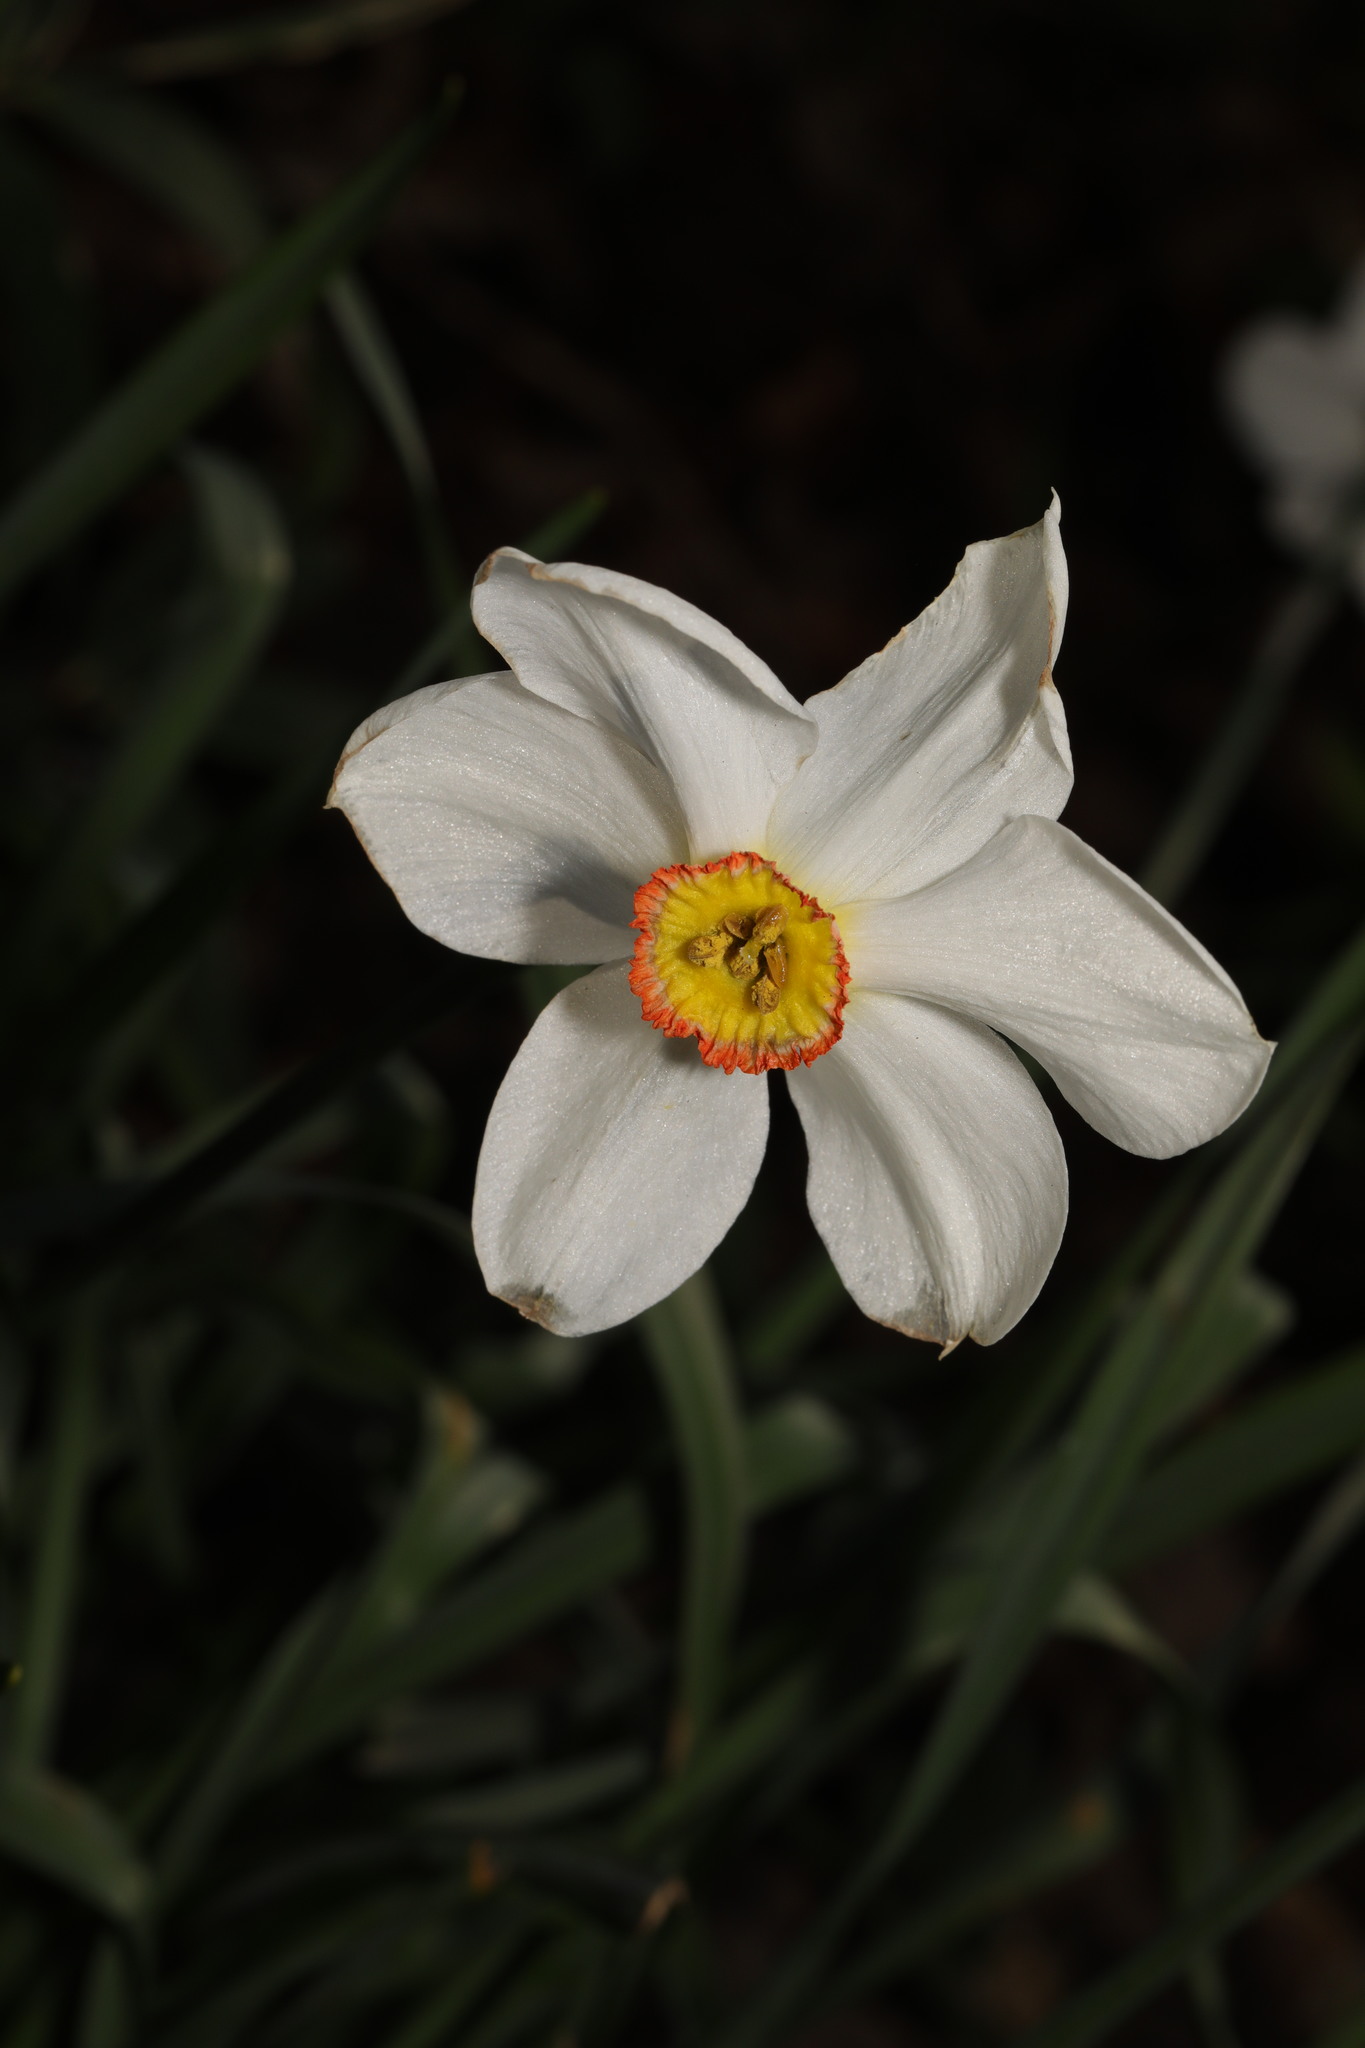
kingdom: Plantae
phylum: Tracheophyta
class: Liliopsida
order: Asparagales
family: Amaryllidaceae
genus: Narcissus
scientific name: Narcissus poeticus
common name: Pheasant's-eye daffodil
